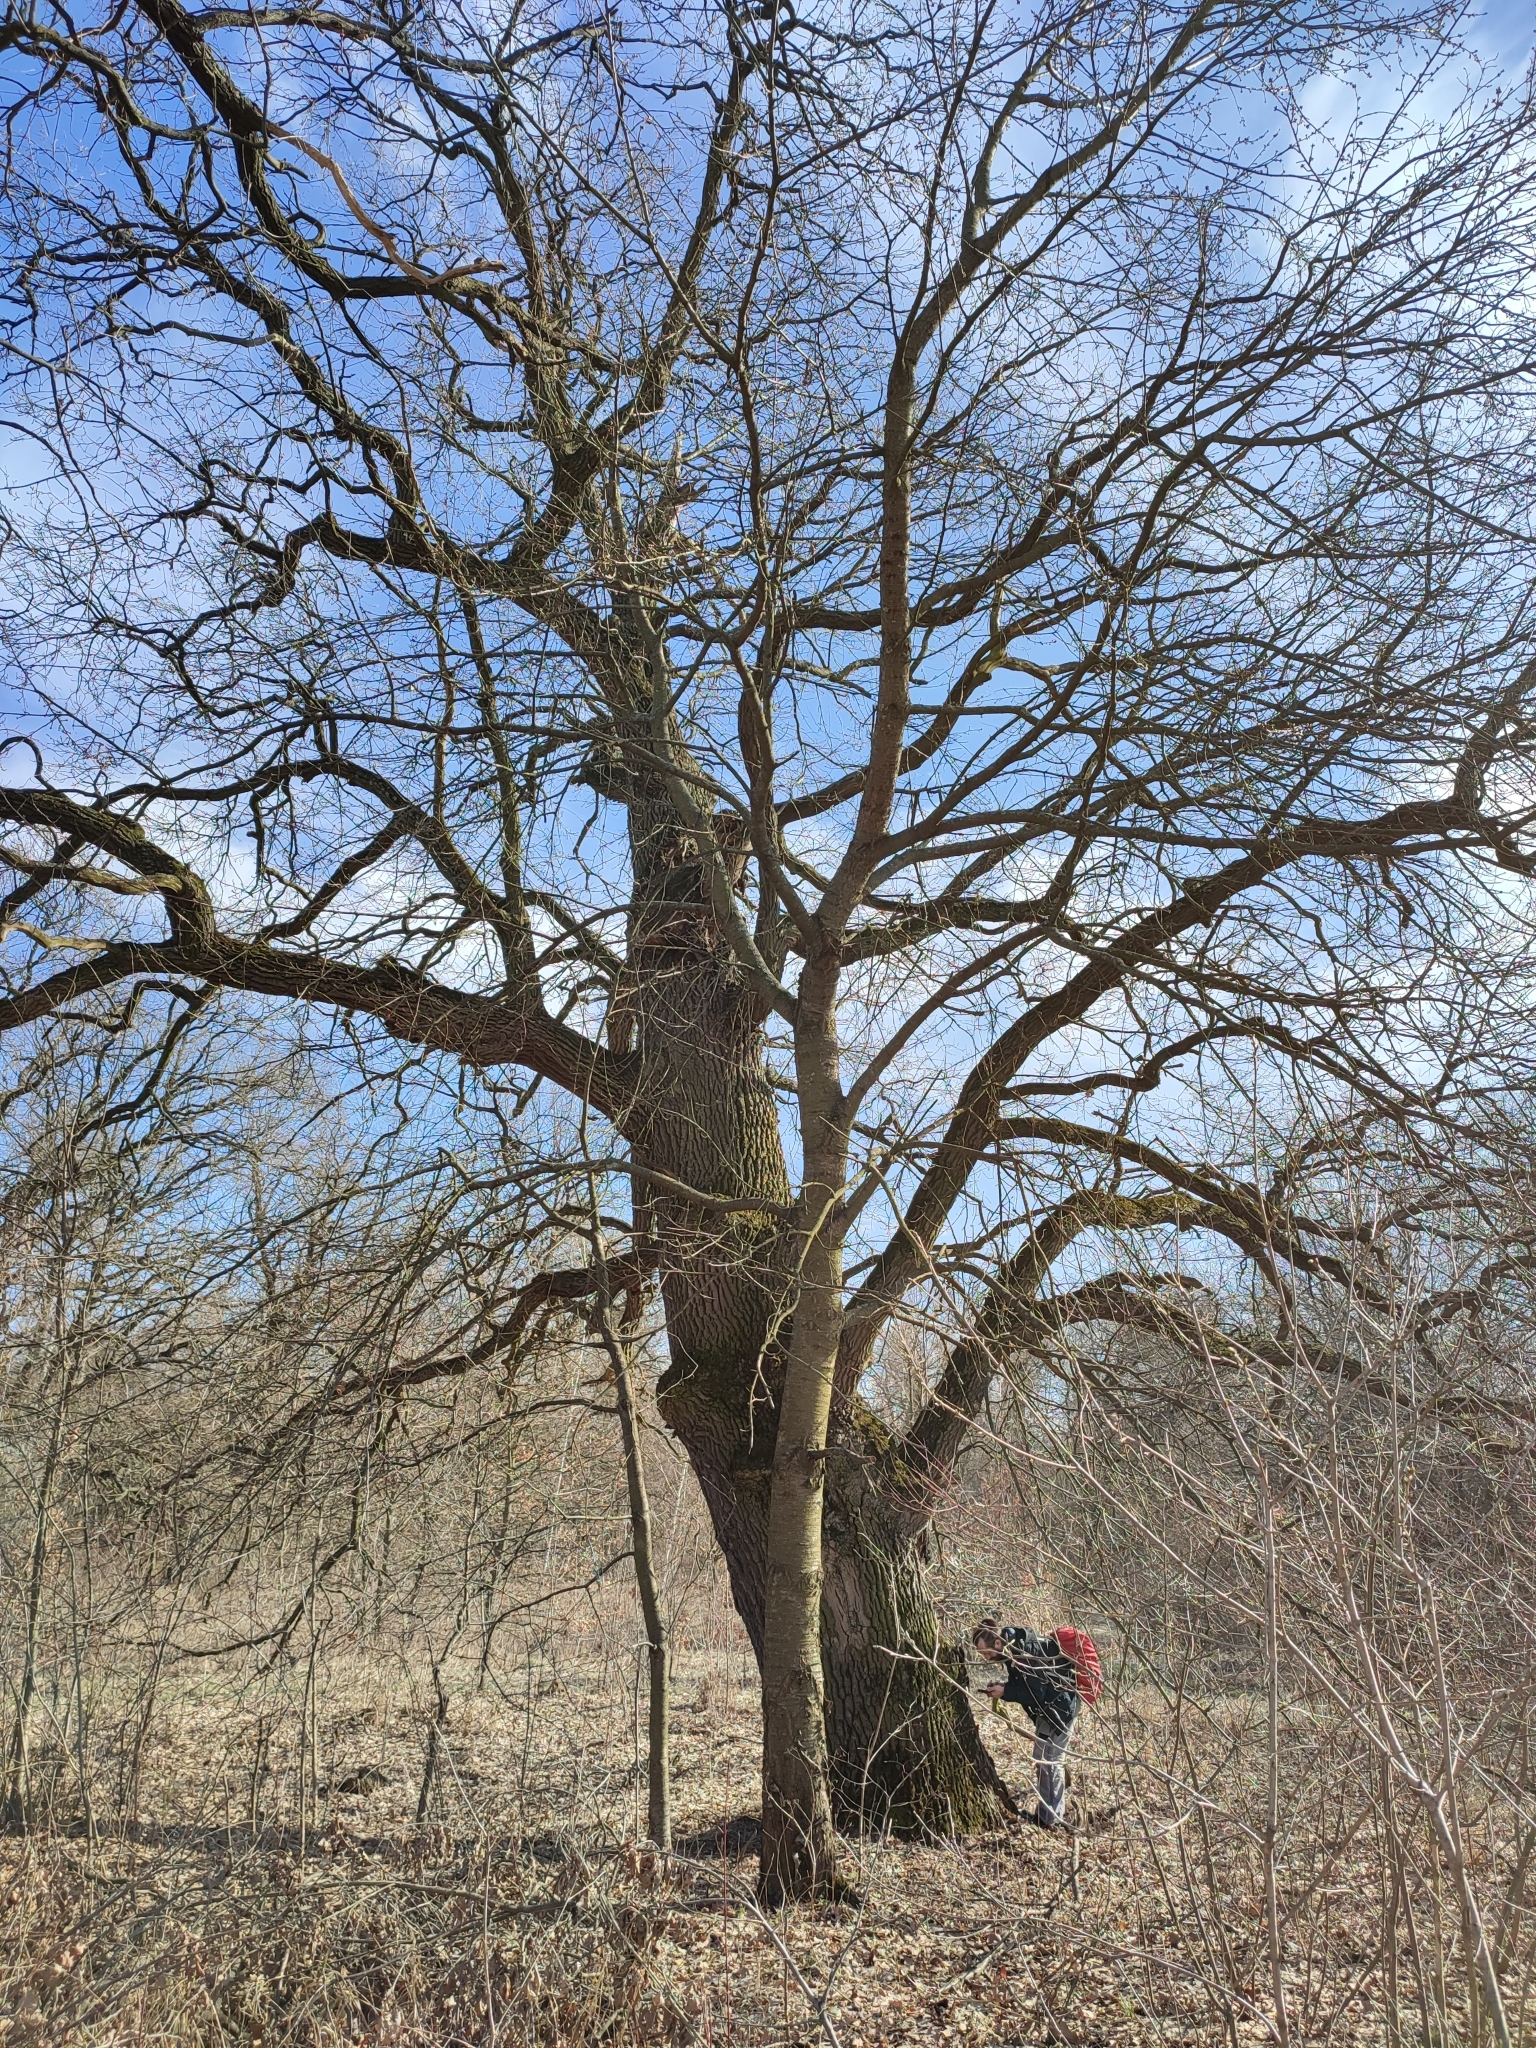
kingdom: Plantae
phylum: Tracheophyta
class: Magnoliopsida
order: Fagales
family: Fagaceae
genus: Quercus
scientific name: Quercus robur
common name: Pedunculate oak
